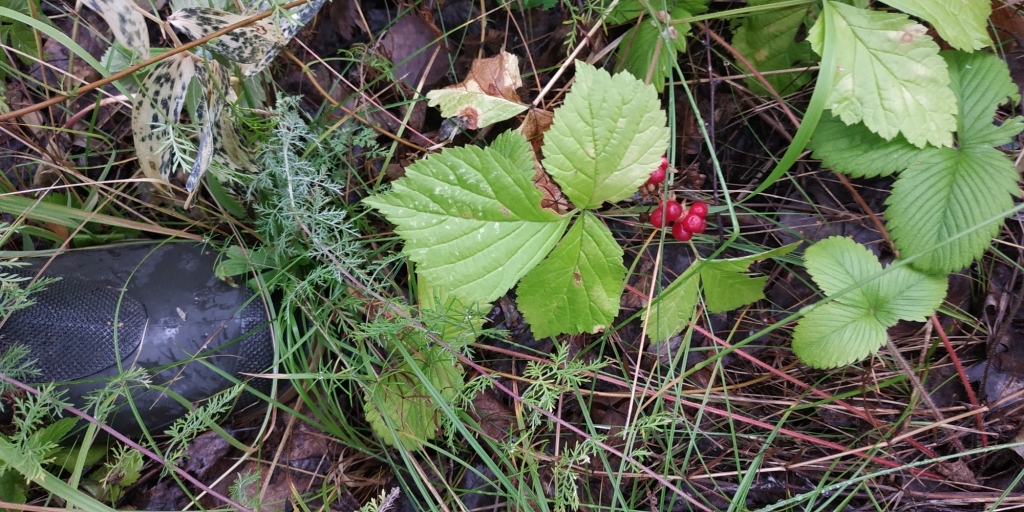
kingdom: Plantae
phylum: Tracheophyta
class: Magnoliopsida
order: Rosales
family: Rosaceae
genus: Rubus
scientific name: Rubus saxatilis
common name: Stone bramble
